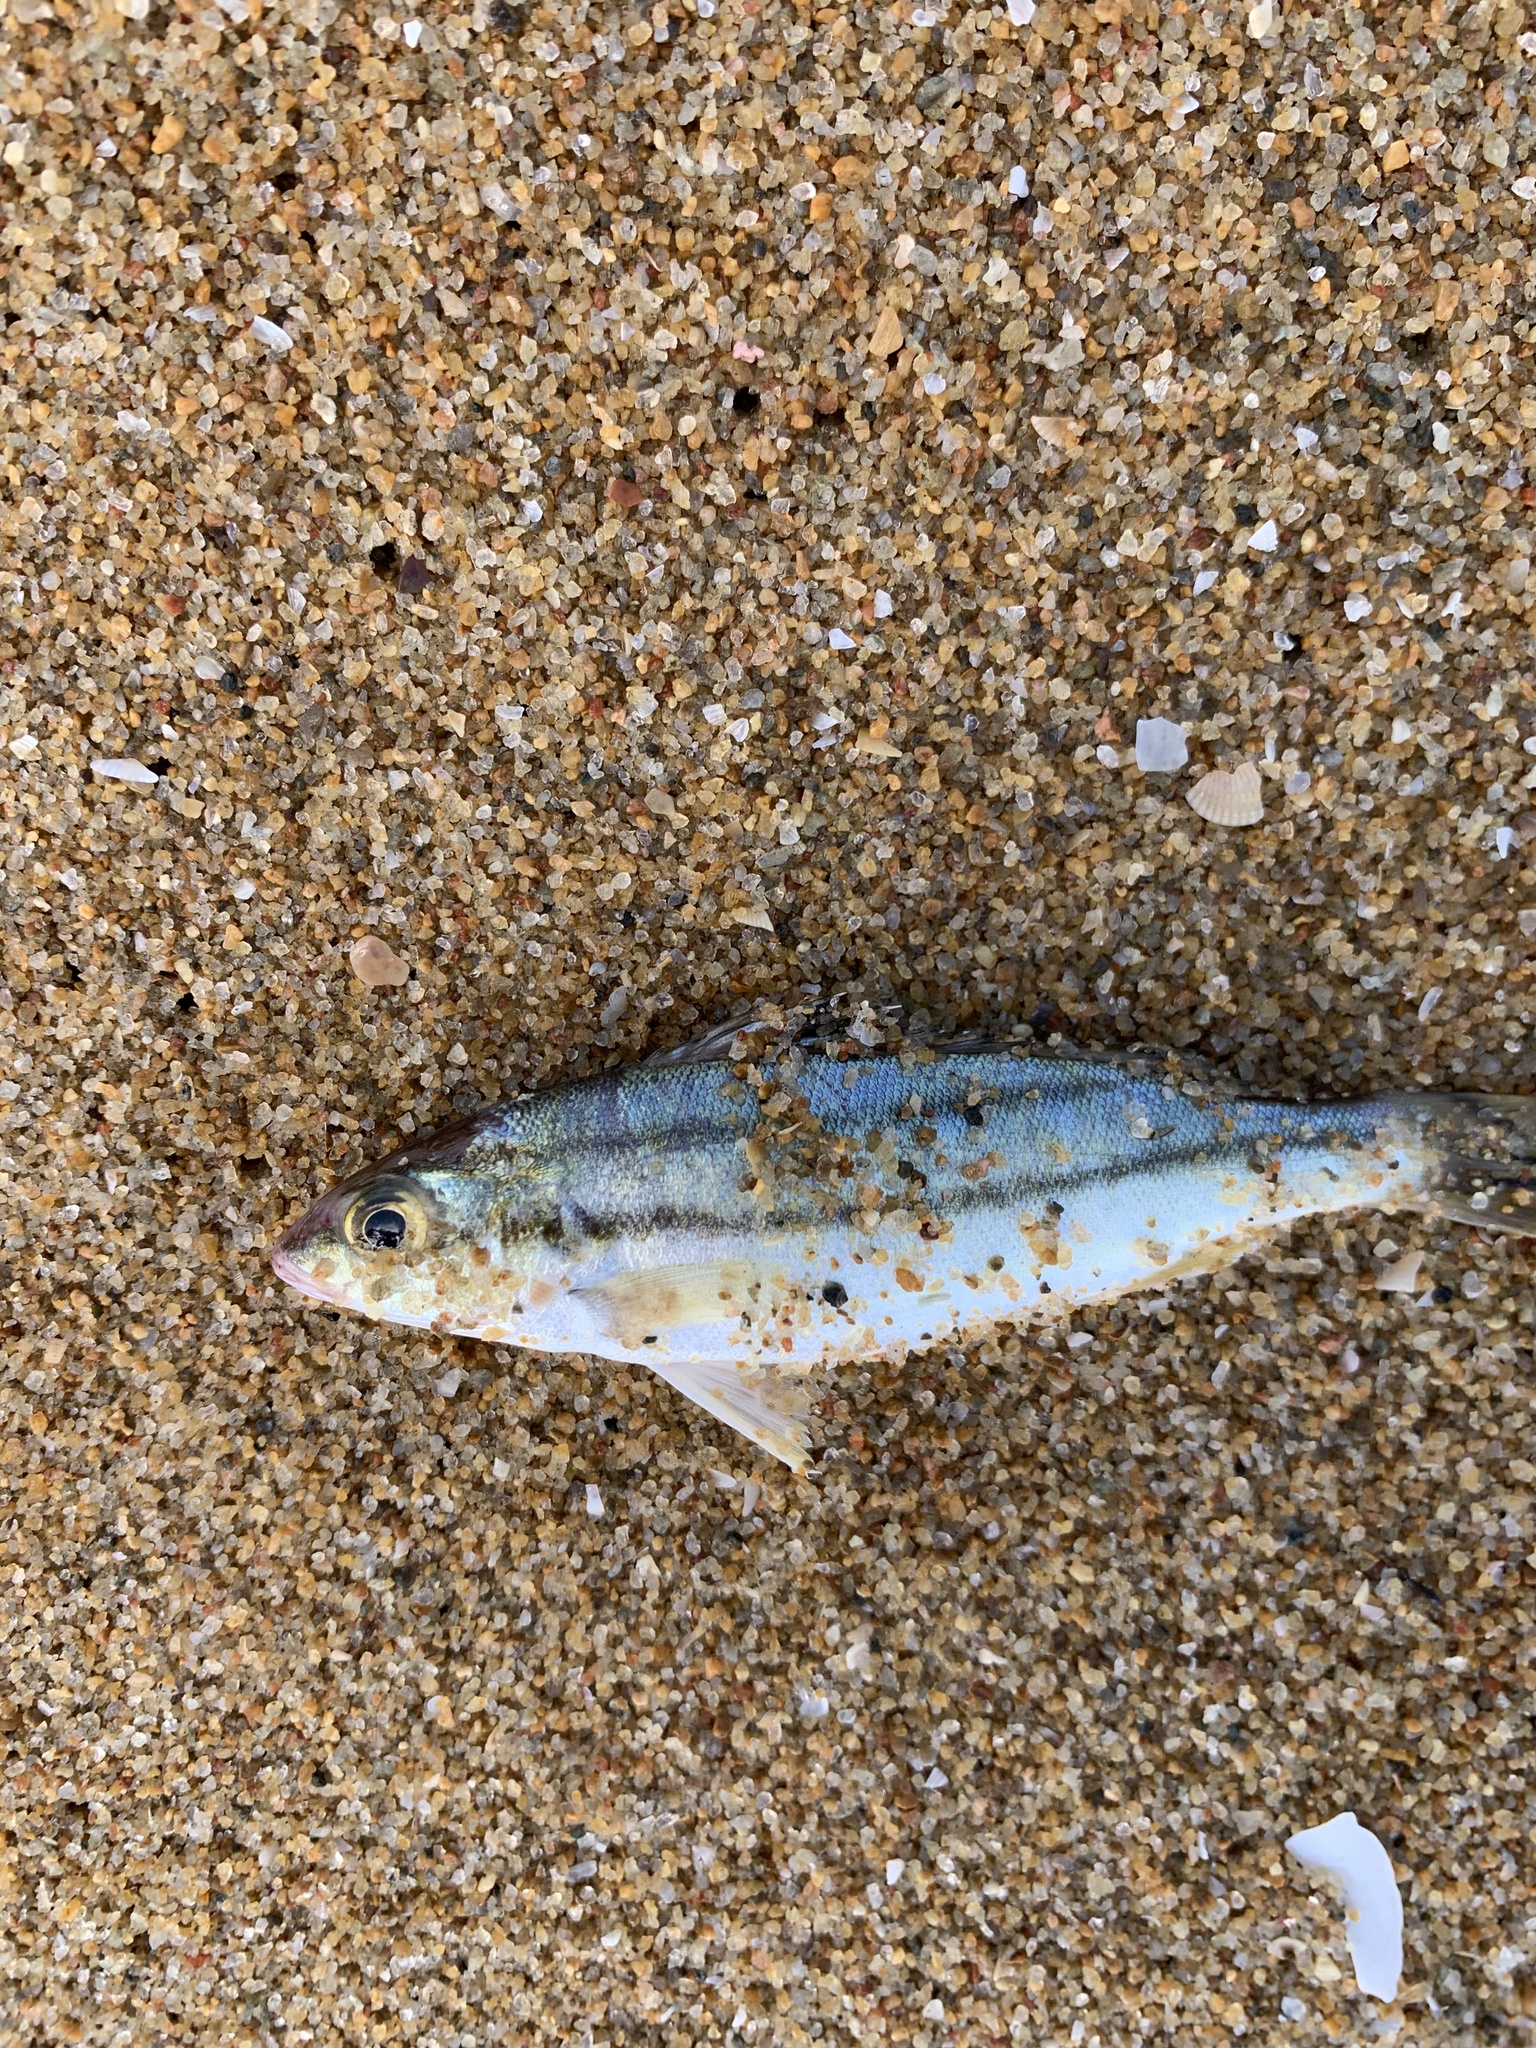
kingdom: Animalia
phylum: Chordata
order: Perciformes
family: Terapontidae
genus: Terapon
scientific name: Terapon puta
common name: Small-scaled terapon
